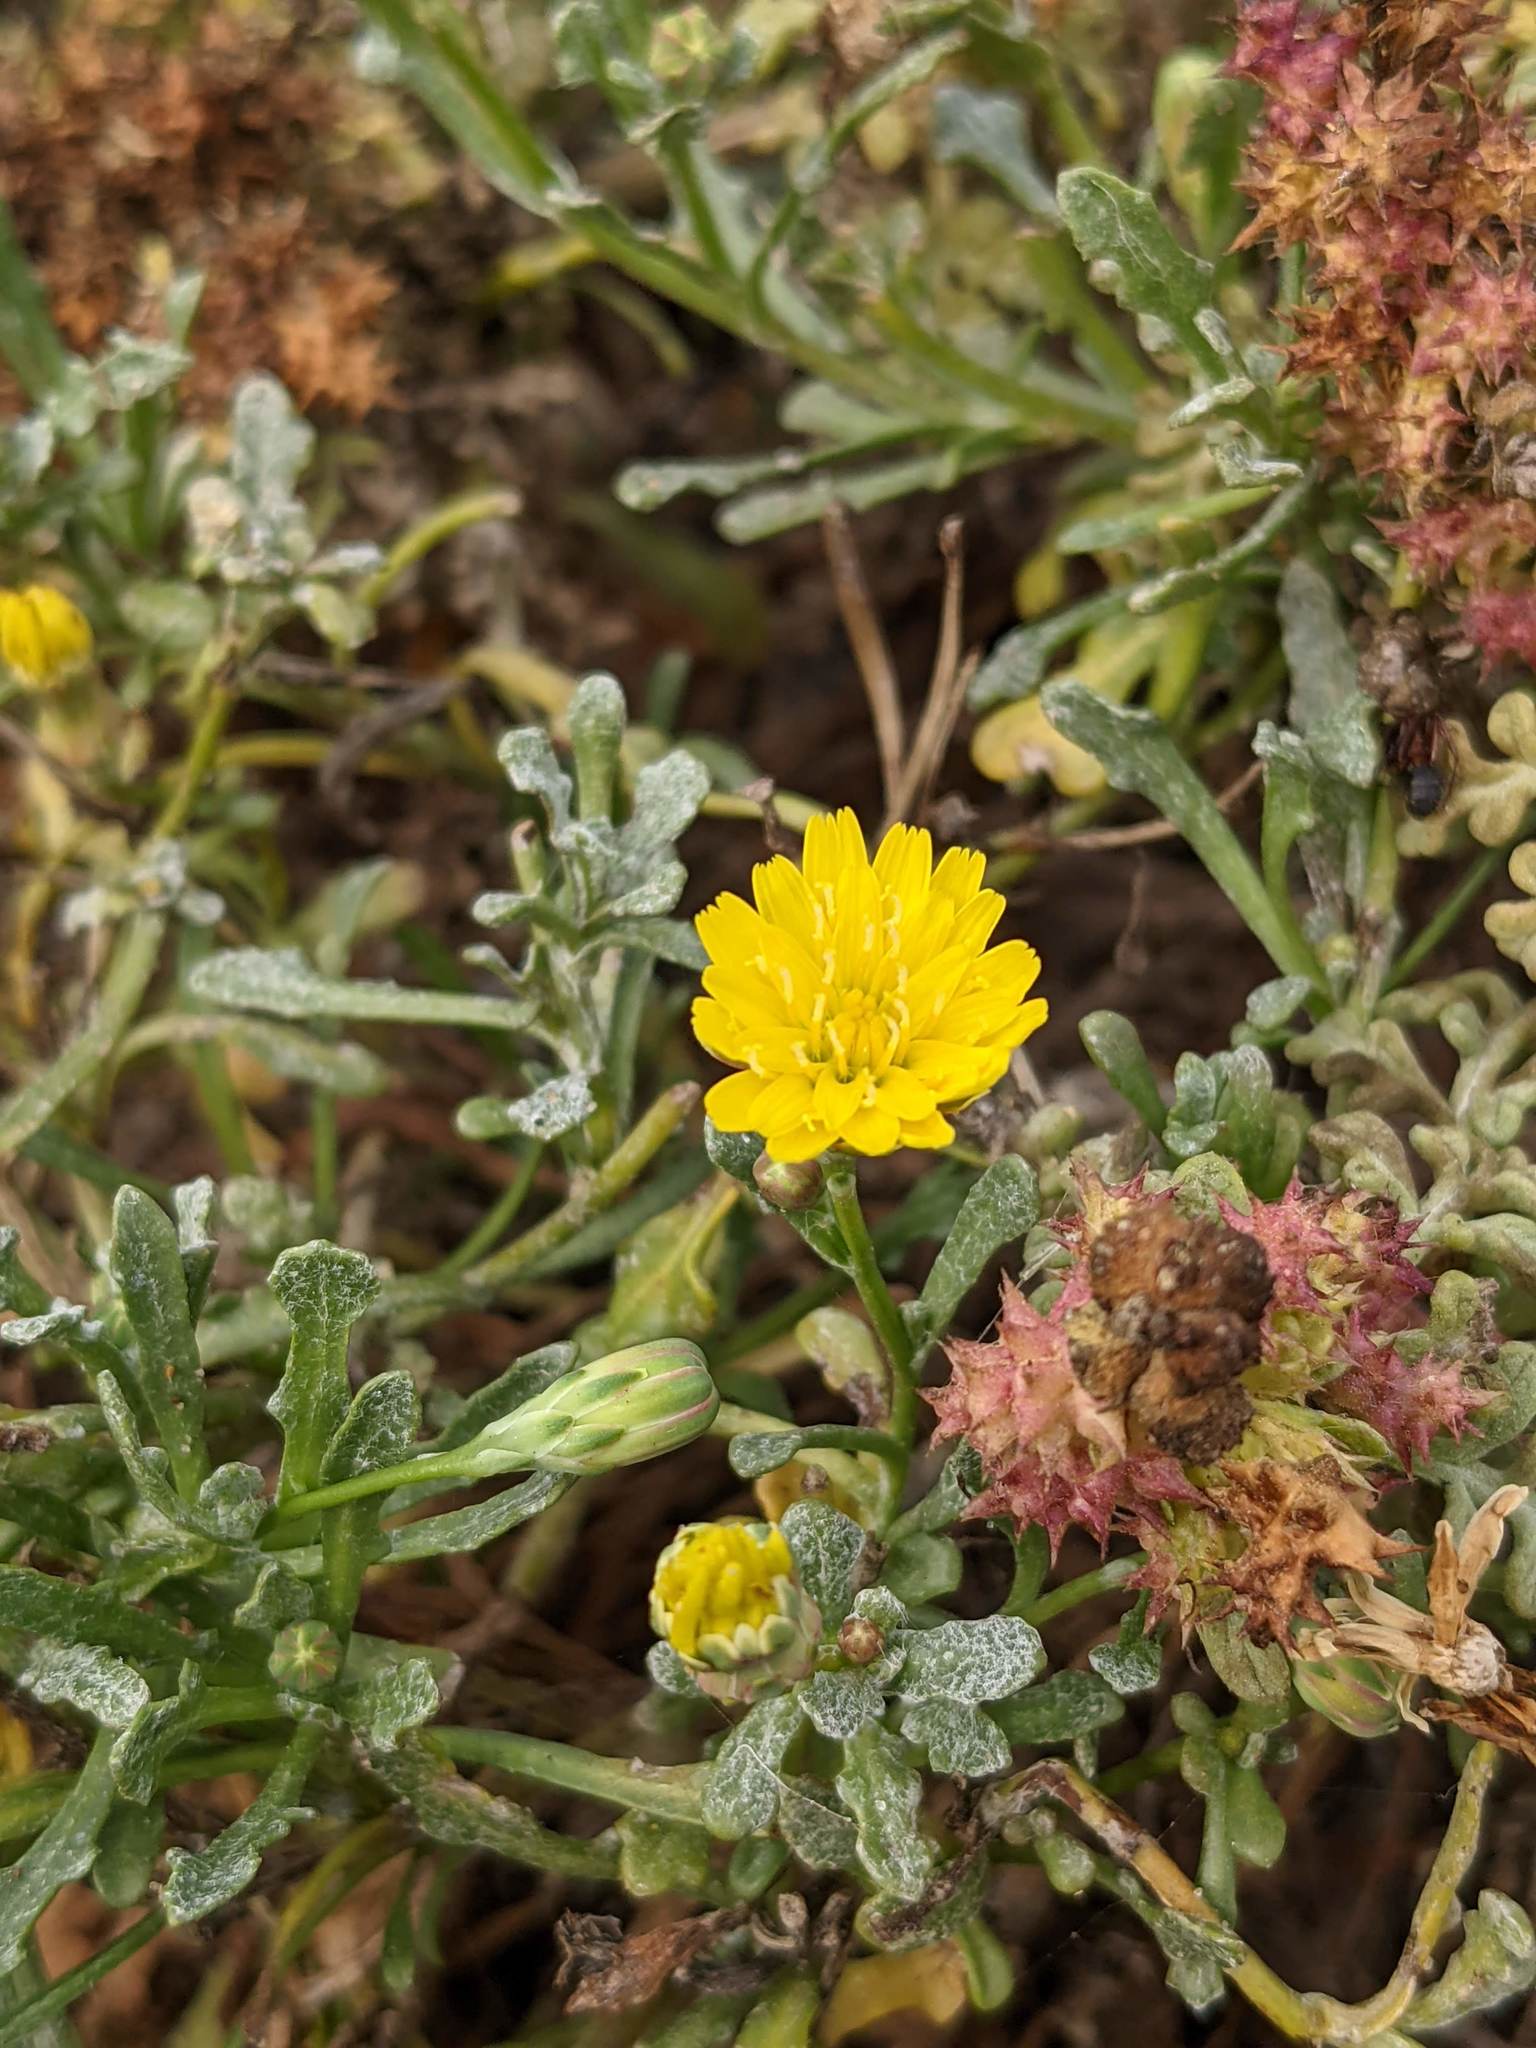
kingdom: Plantae
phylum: Tracheophyta
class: Magnoliopsida
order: Asterales
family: Asteraceae
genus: Malacothrix
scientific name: Malacothrix incana
